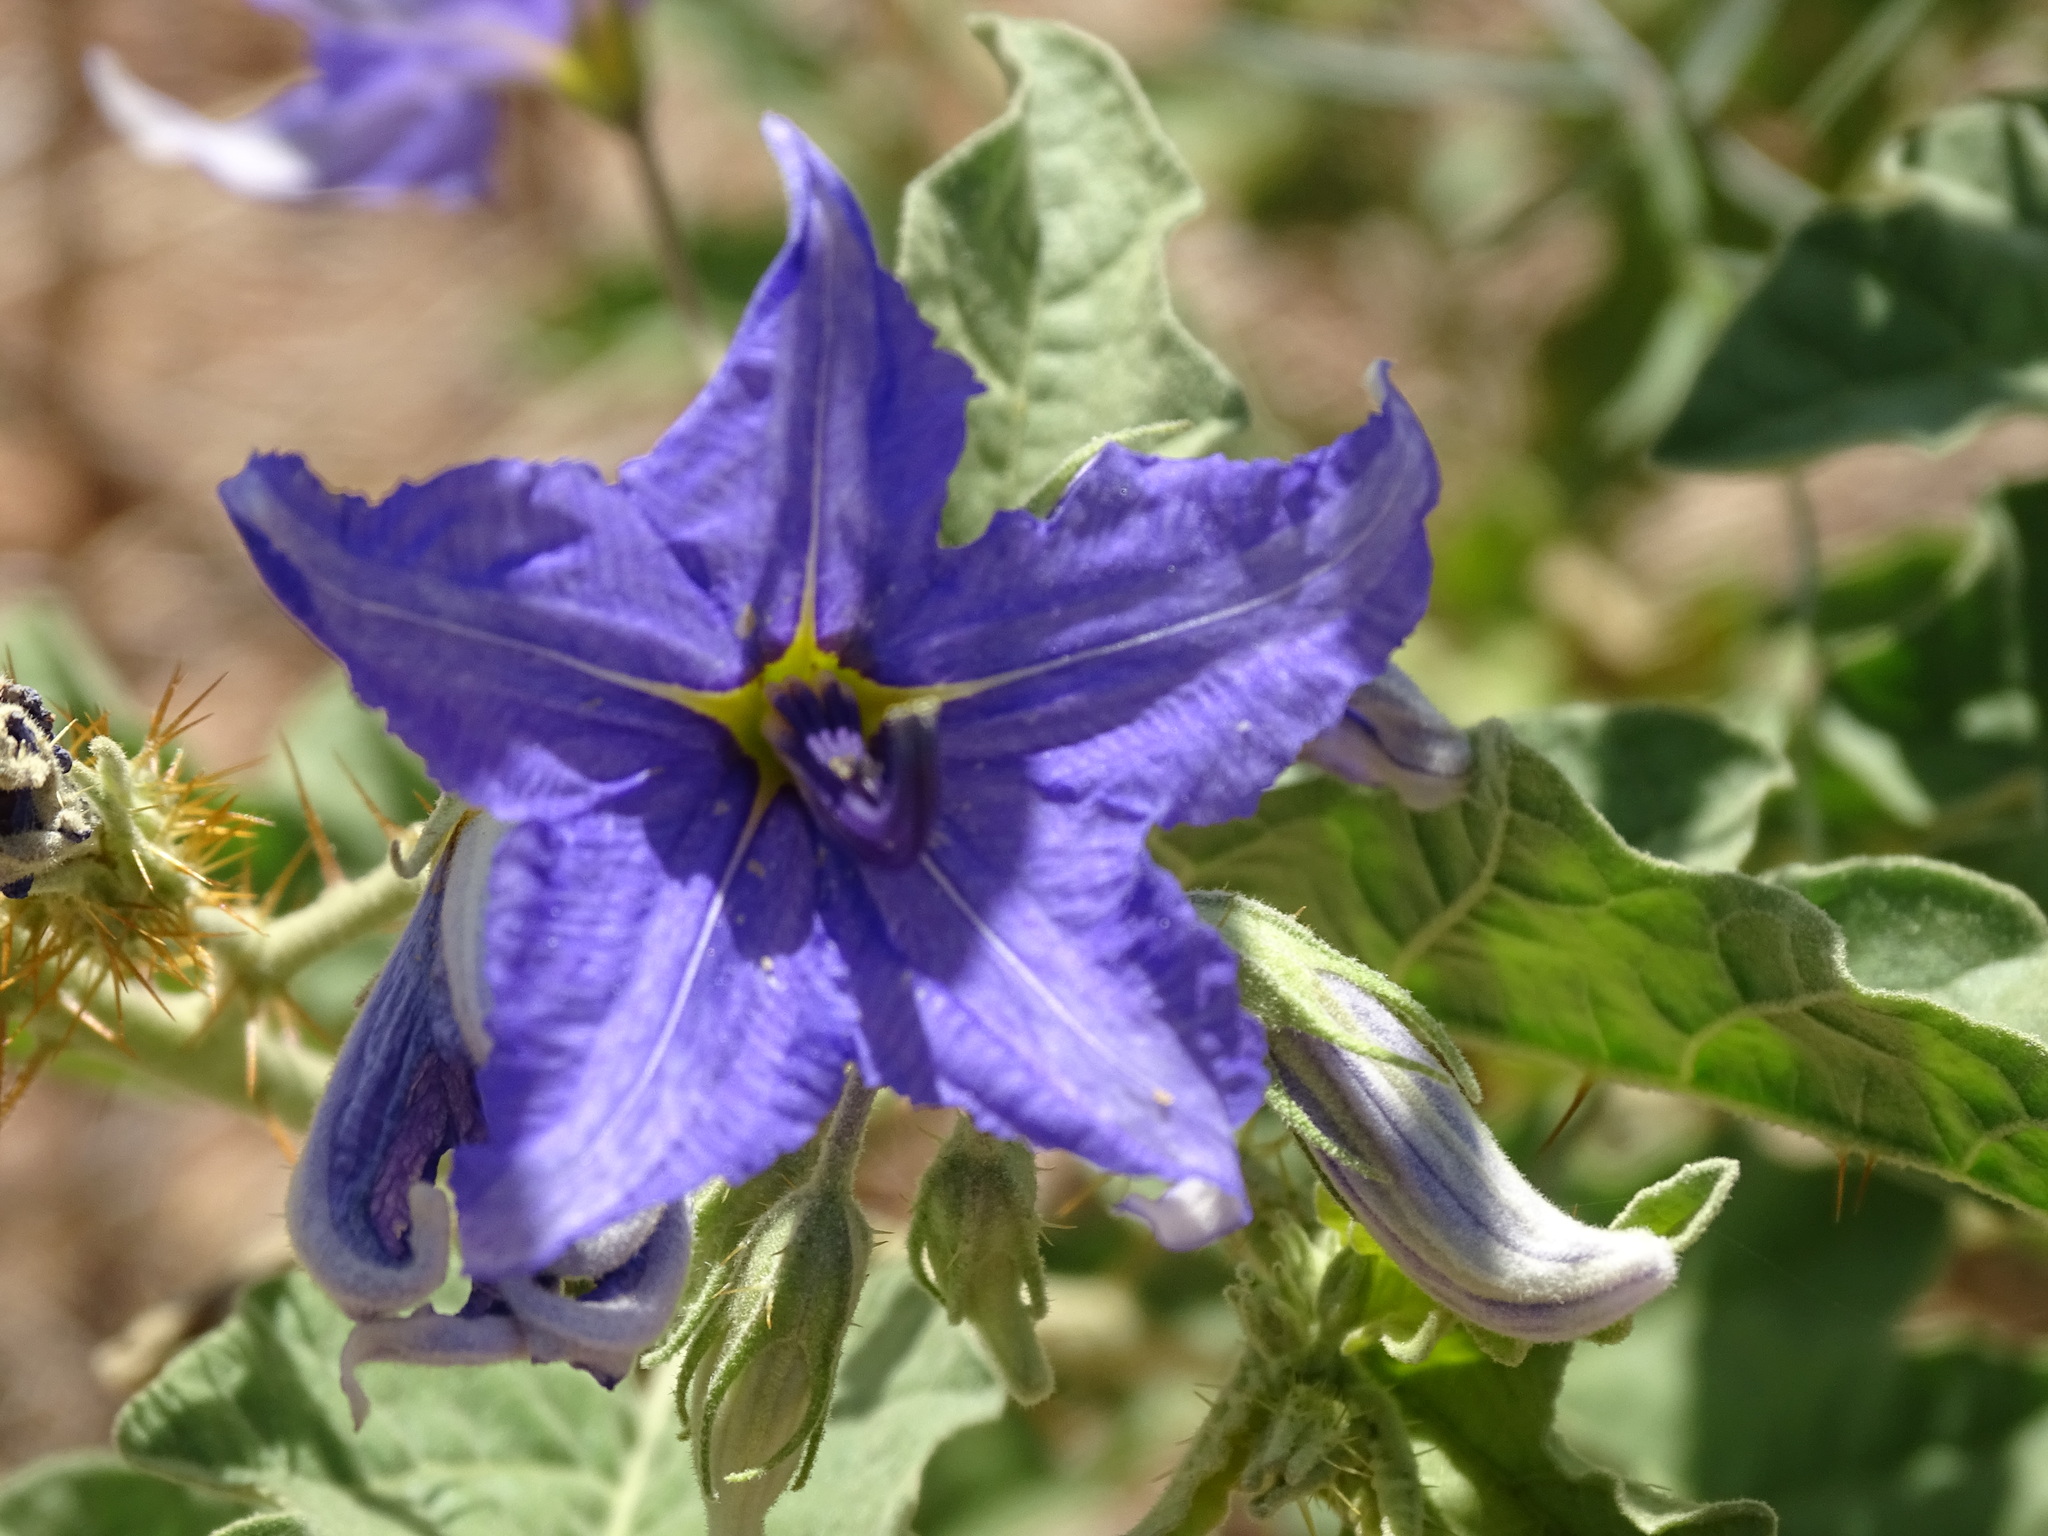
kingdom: Plantae
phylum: Tracheophyta
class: Magnoliopsida
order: Solanales
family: Solanaceae
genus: Solanum
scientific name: Solanum houstonii
